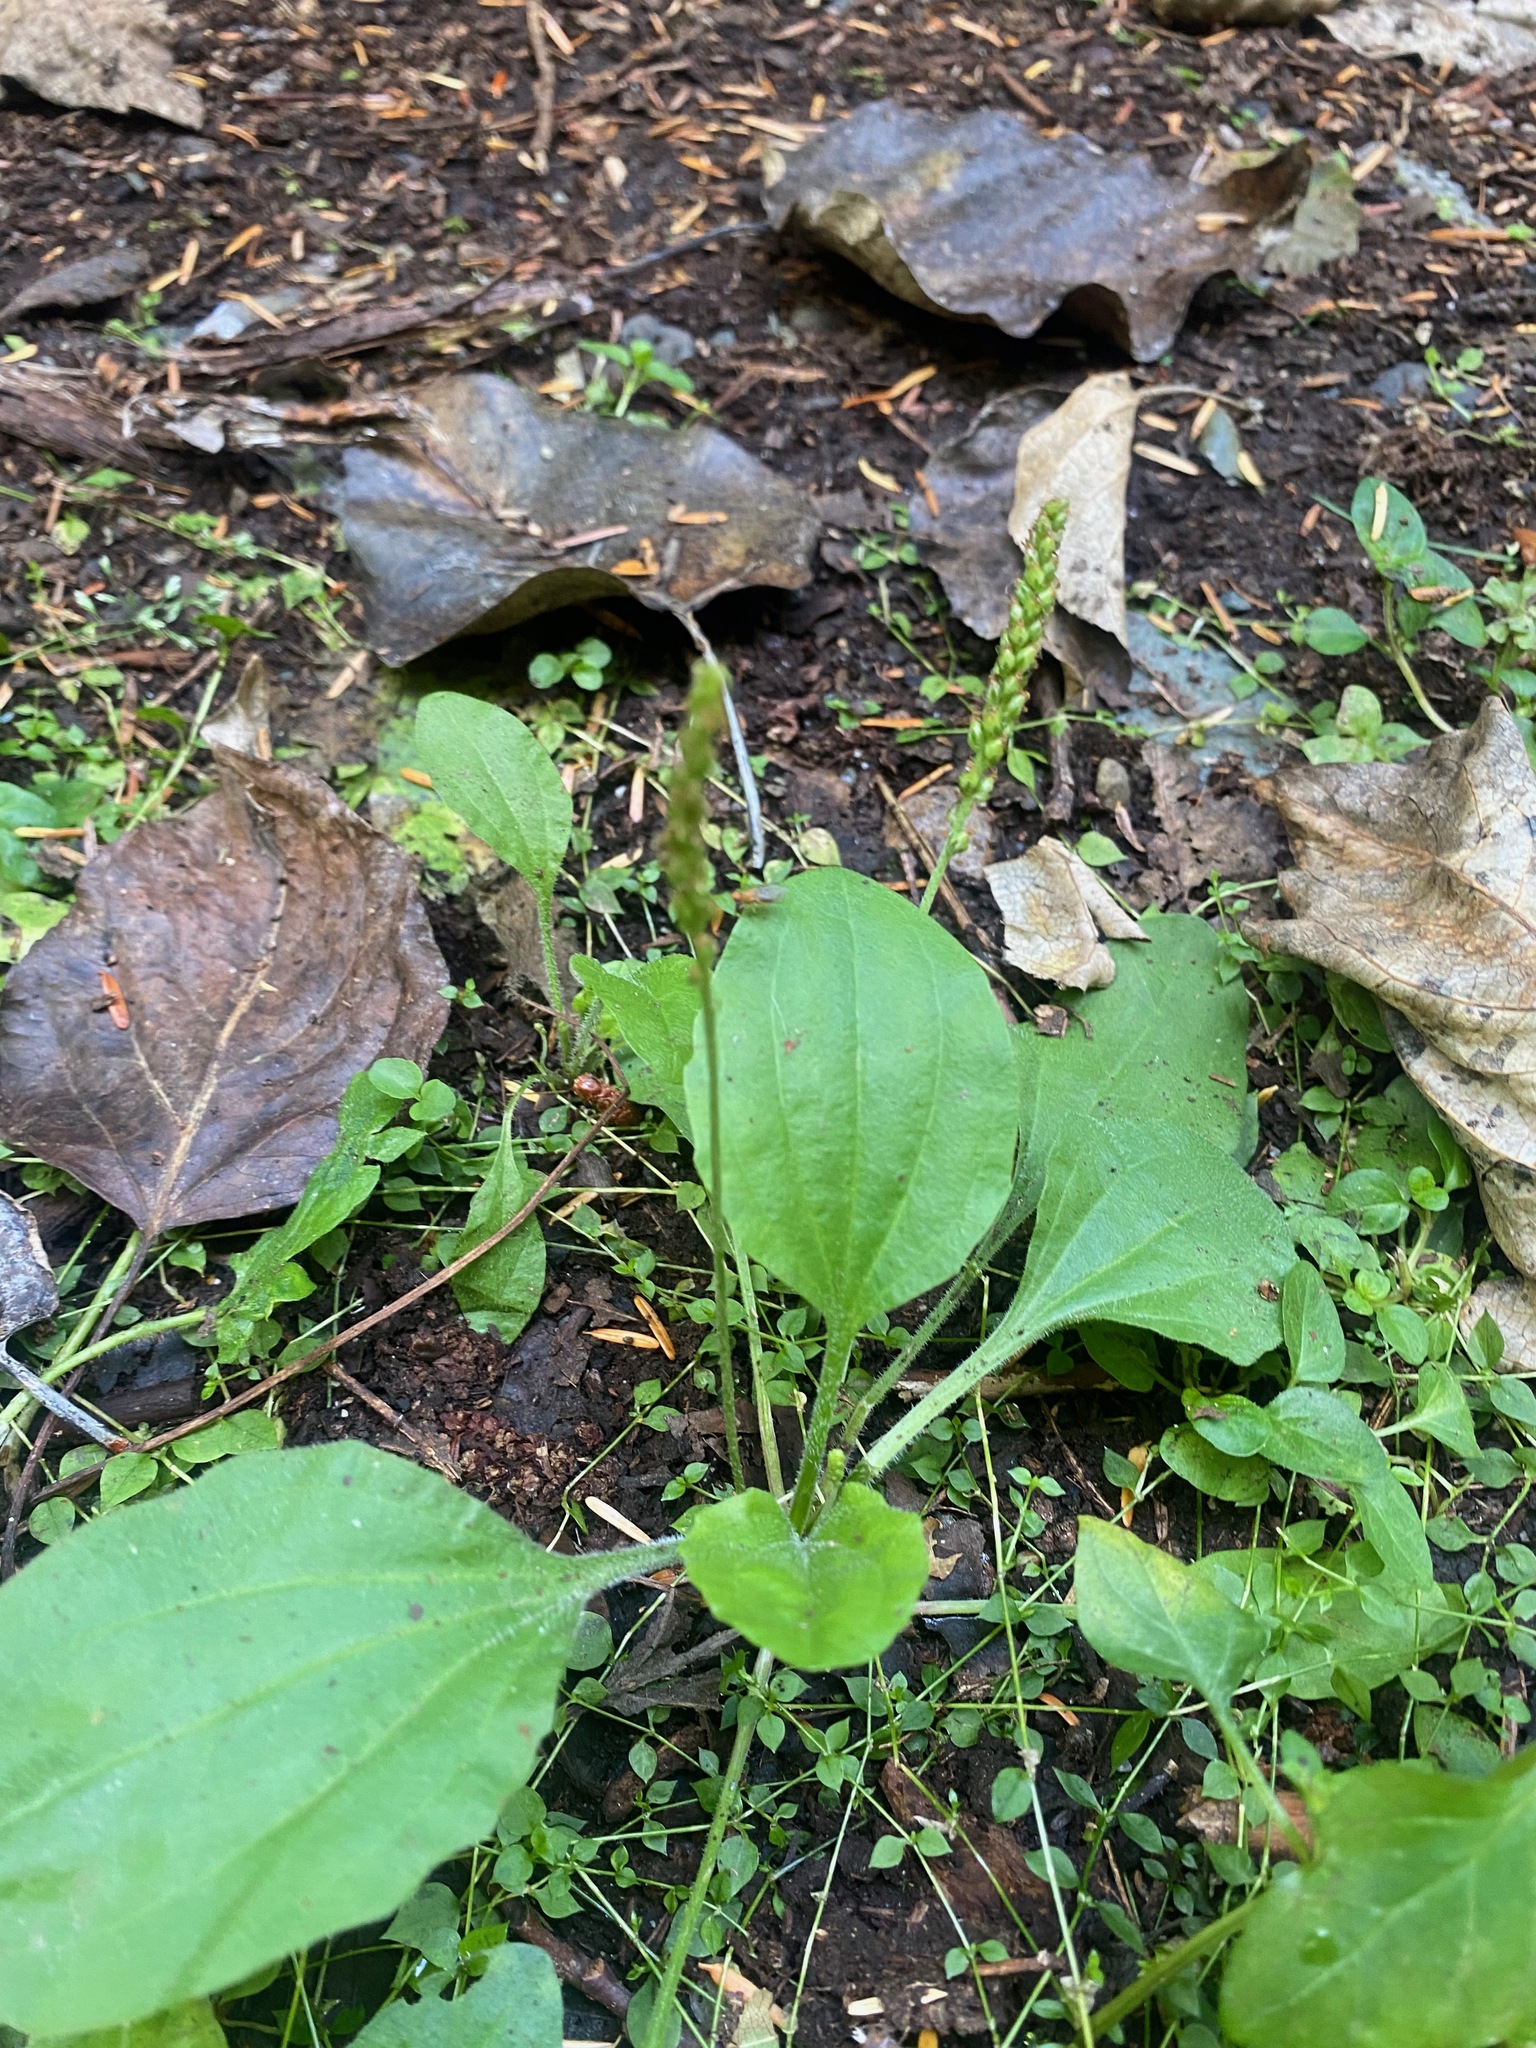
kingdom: Plantae
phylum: Tracheophyta
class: Magnoliopsida
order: Lamiales
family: Plantaginaceae
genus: Plantago
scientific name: Plantago major
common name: Common plantain
